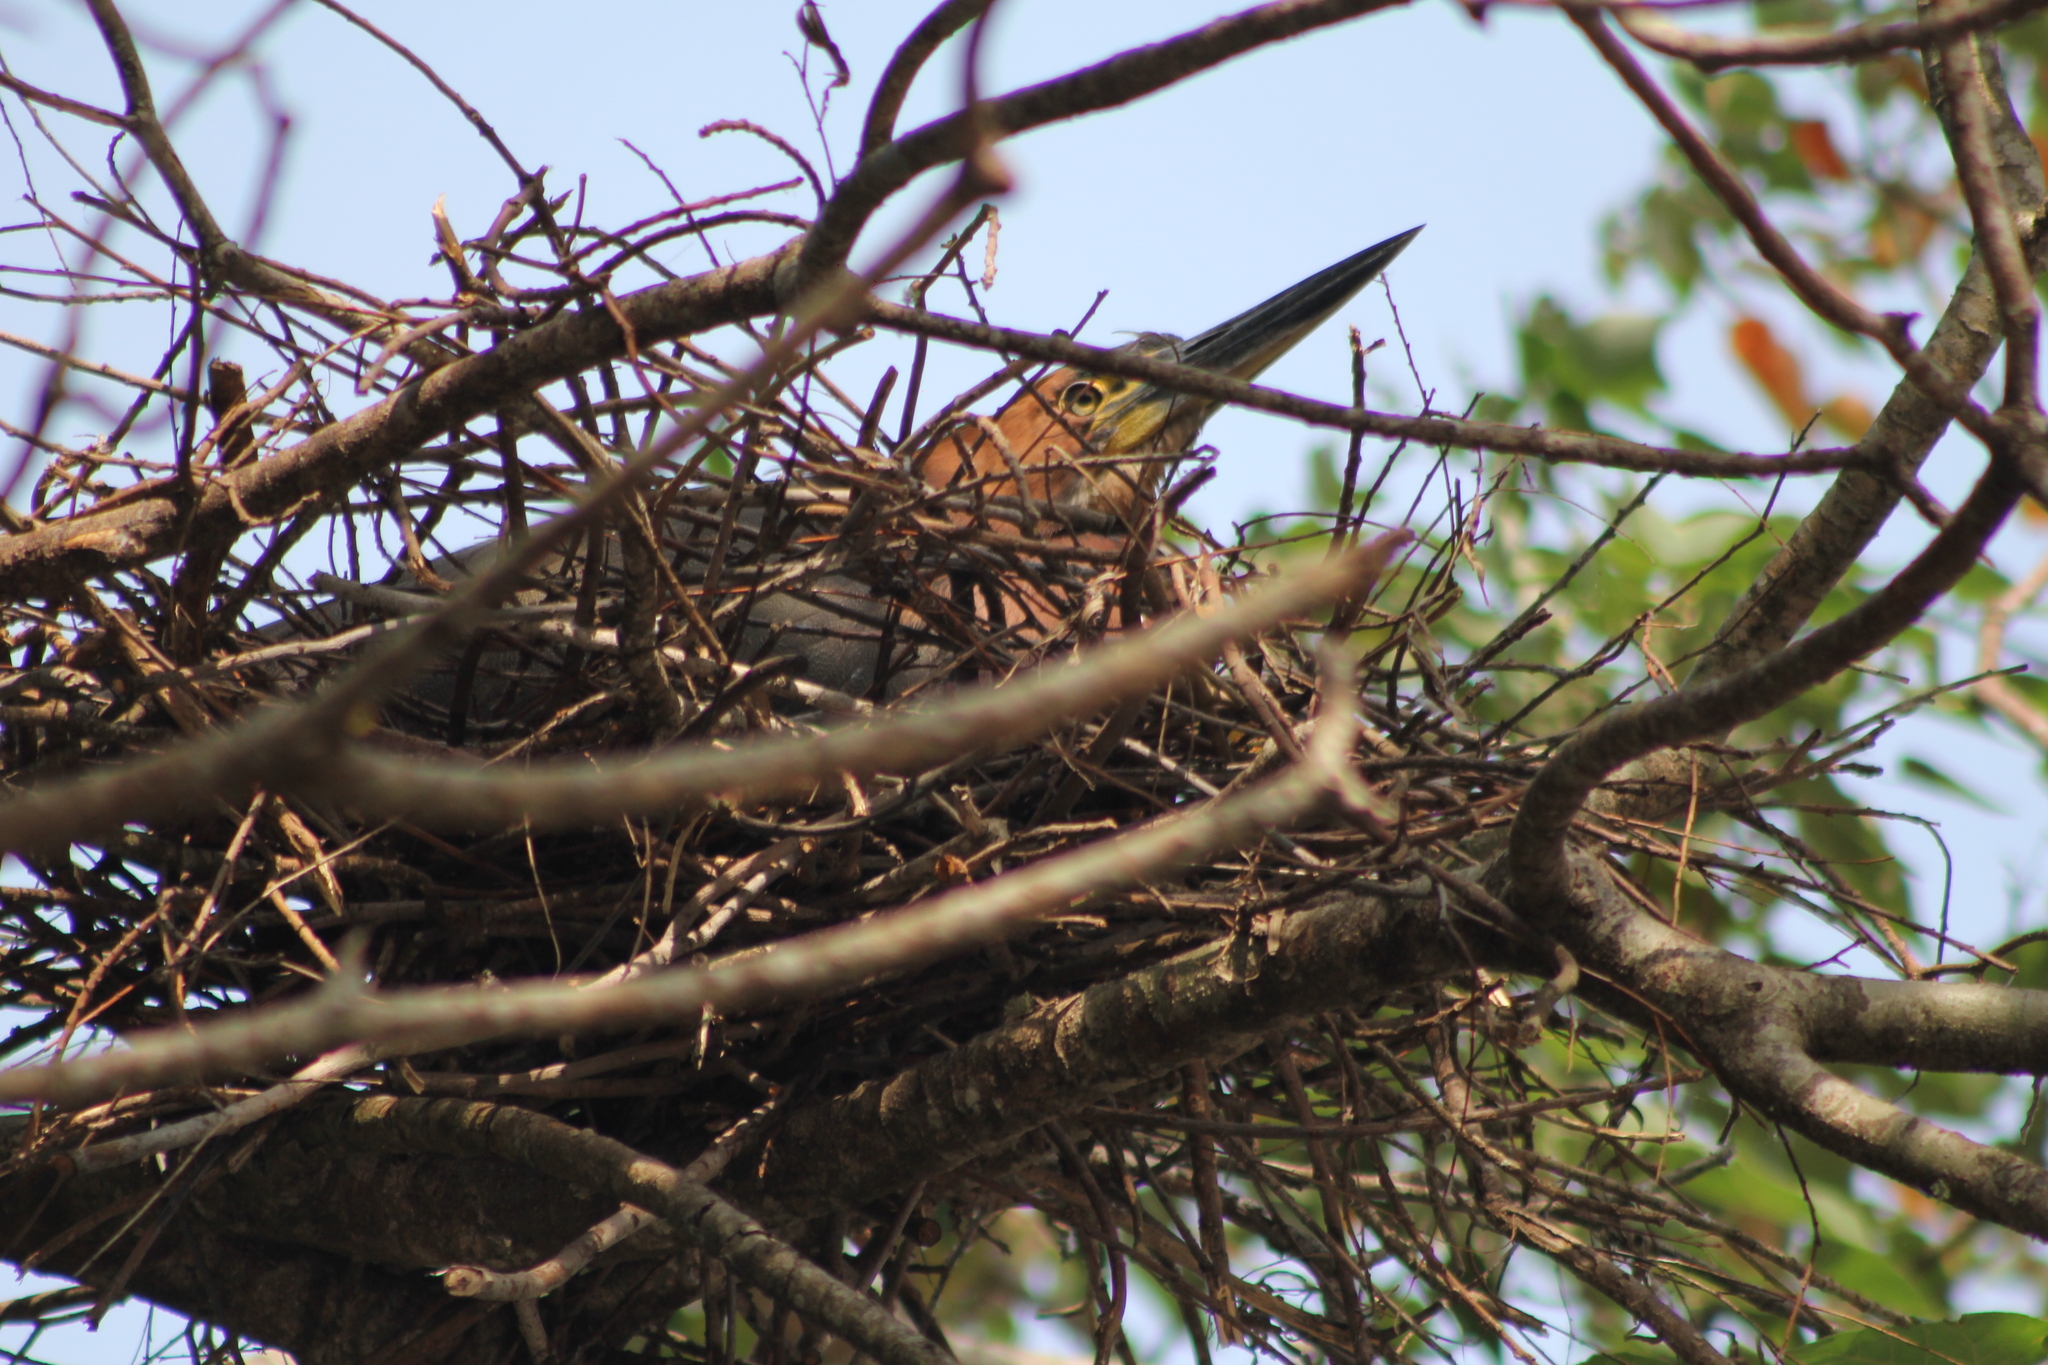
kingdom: Animalia
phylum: Chordata
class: Aves
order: Pelecaniformes
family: Ardeidae
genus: Tigrisoma
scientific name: Tigrisoma lineatum
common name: Rufescent tiger-heron
